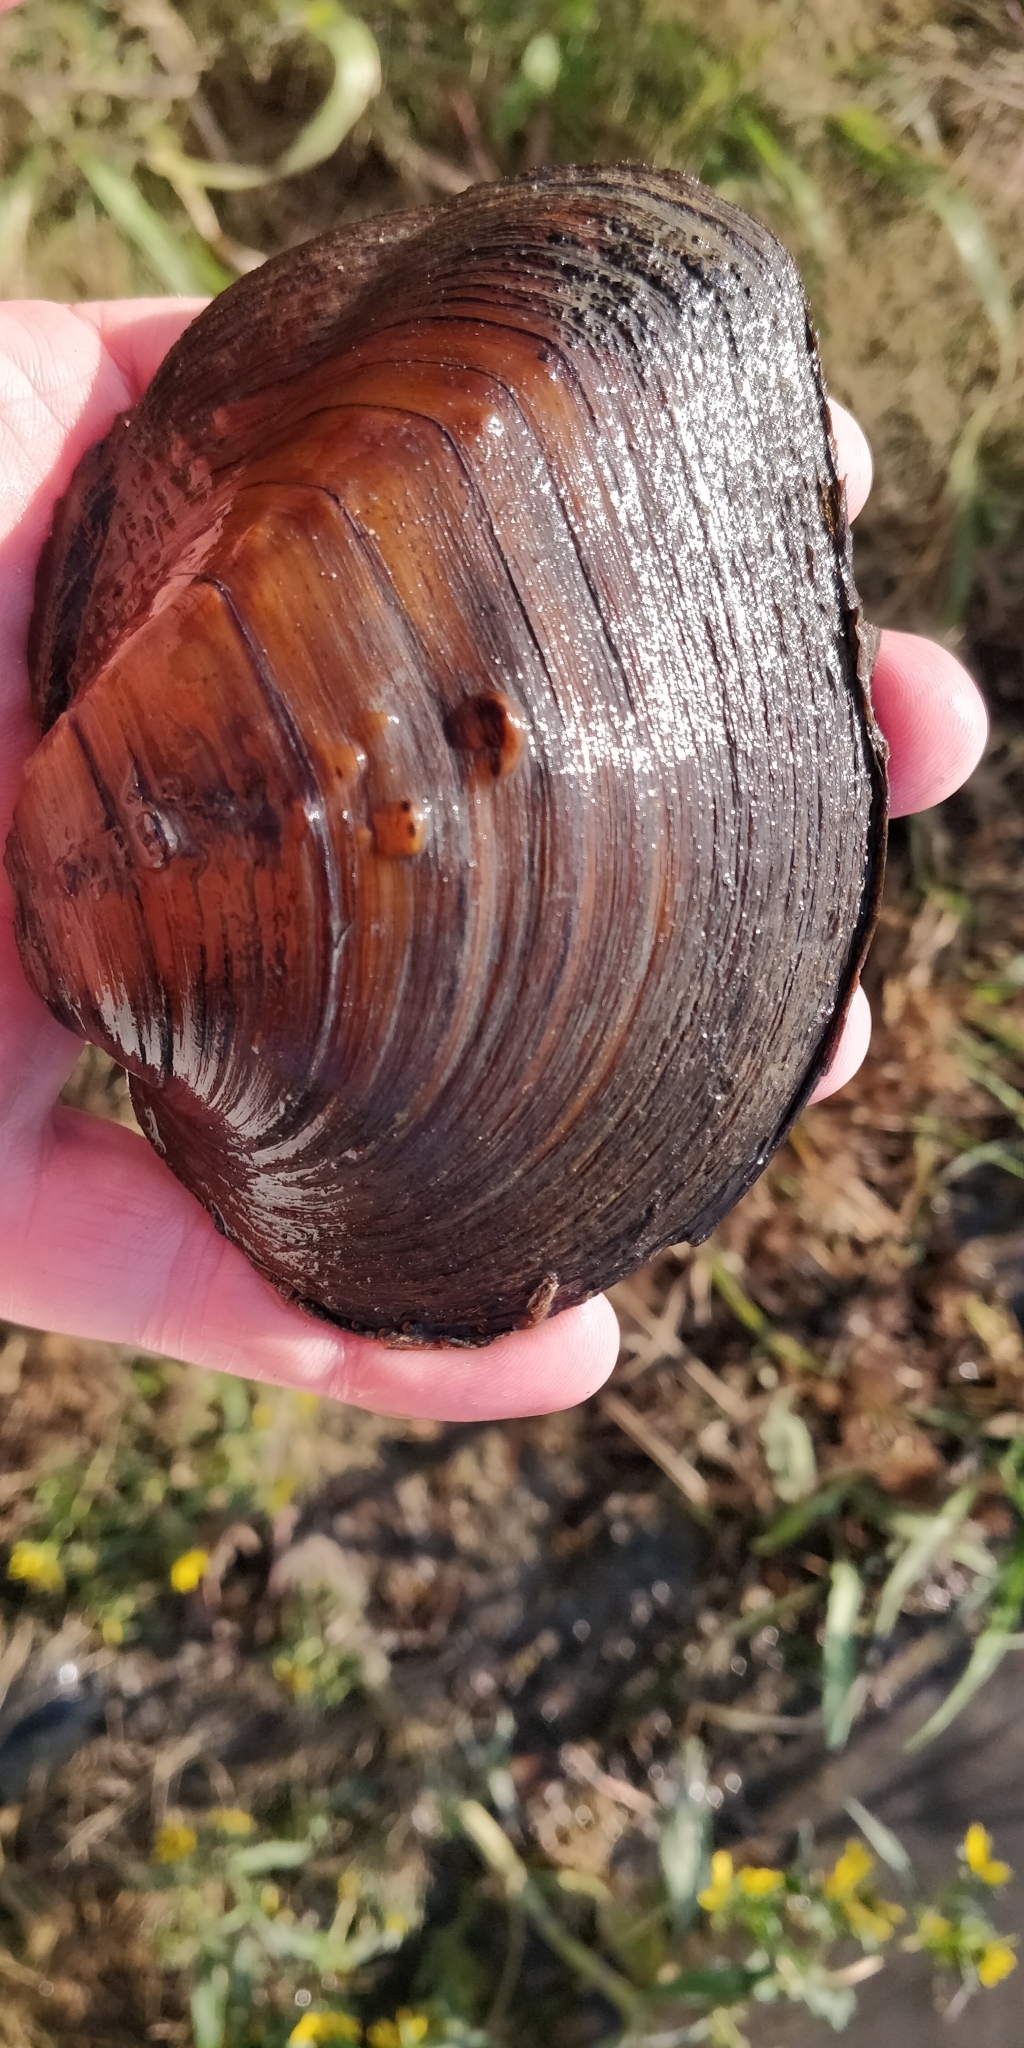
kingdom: Animalia
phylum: Mollusca
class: Bivalvia
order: Unionida
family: Unionidae
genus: Quadrula
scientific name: Quadrula quadrula
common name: Mapleleaf
